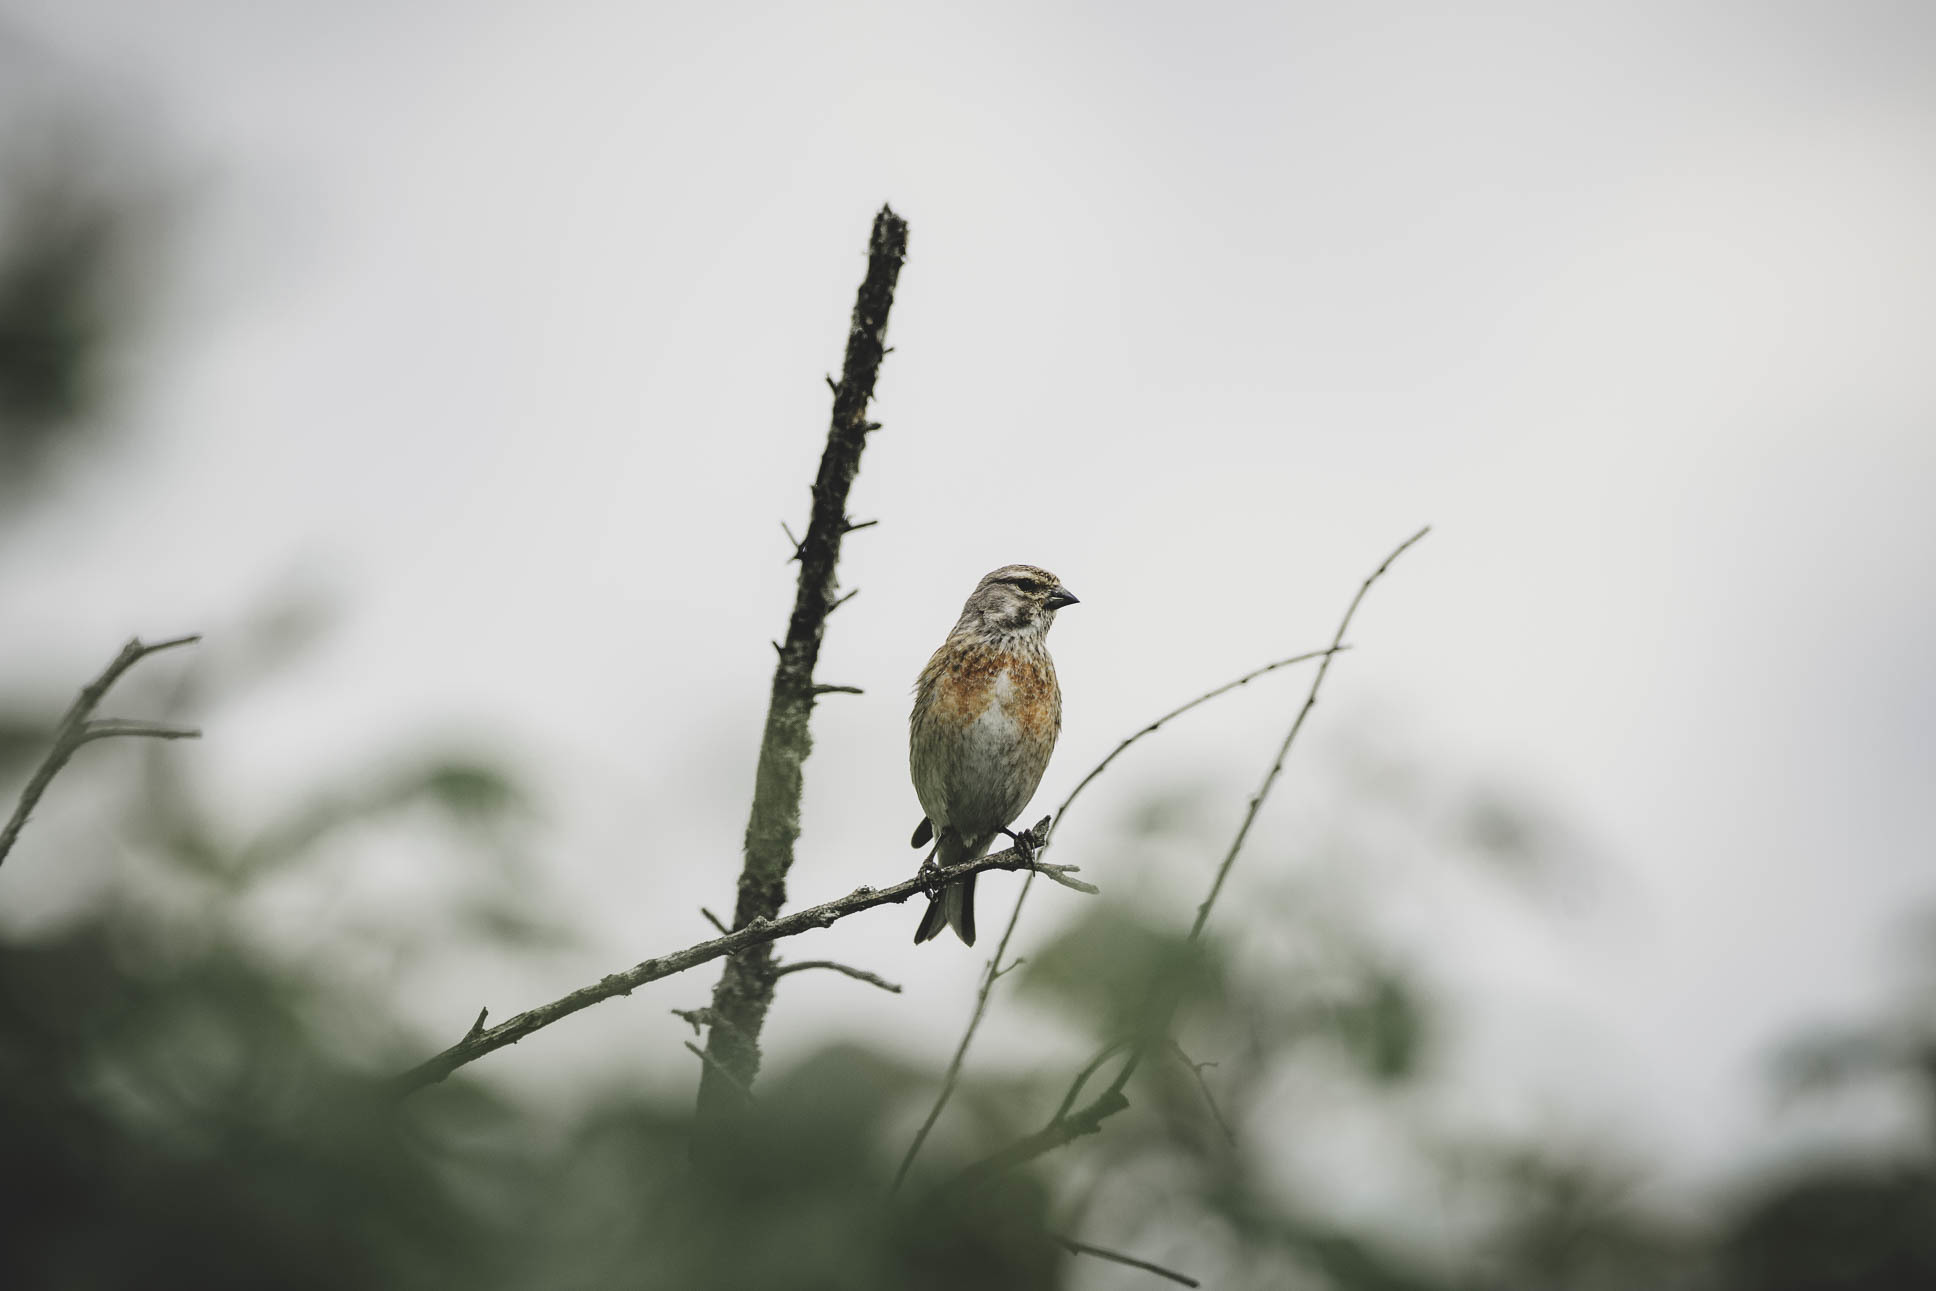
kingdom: Animalia
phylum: Chordata
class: Aves
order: Passeriformes
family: Fringillidae
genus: Linaria
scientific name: Linaria cannabina
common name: Common linnet
